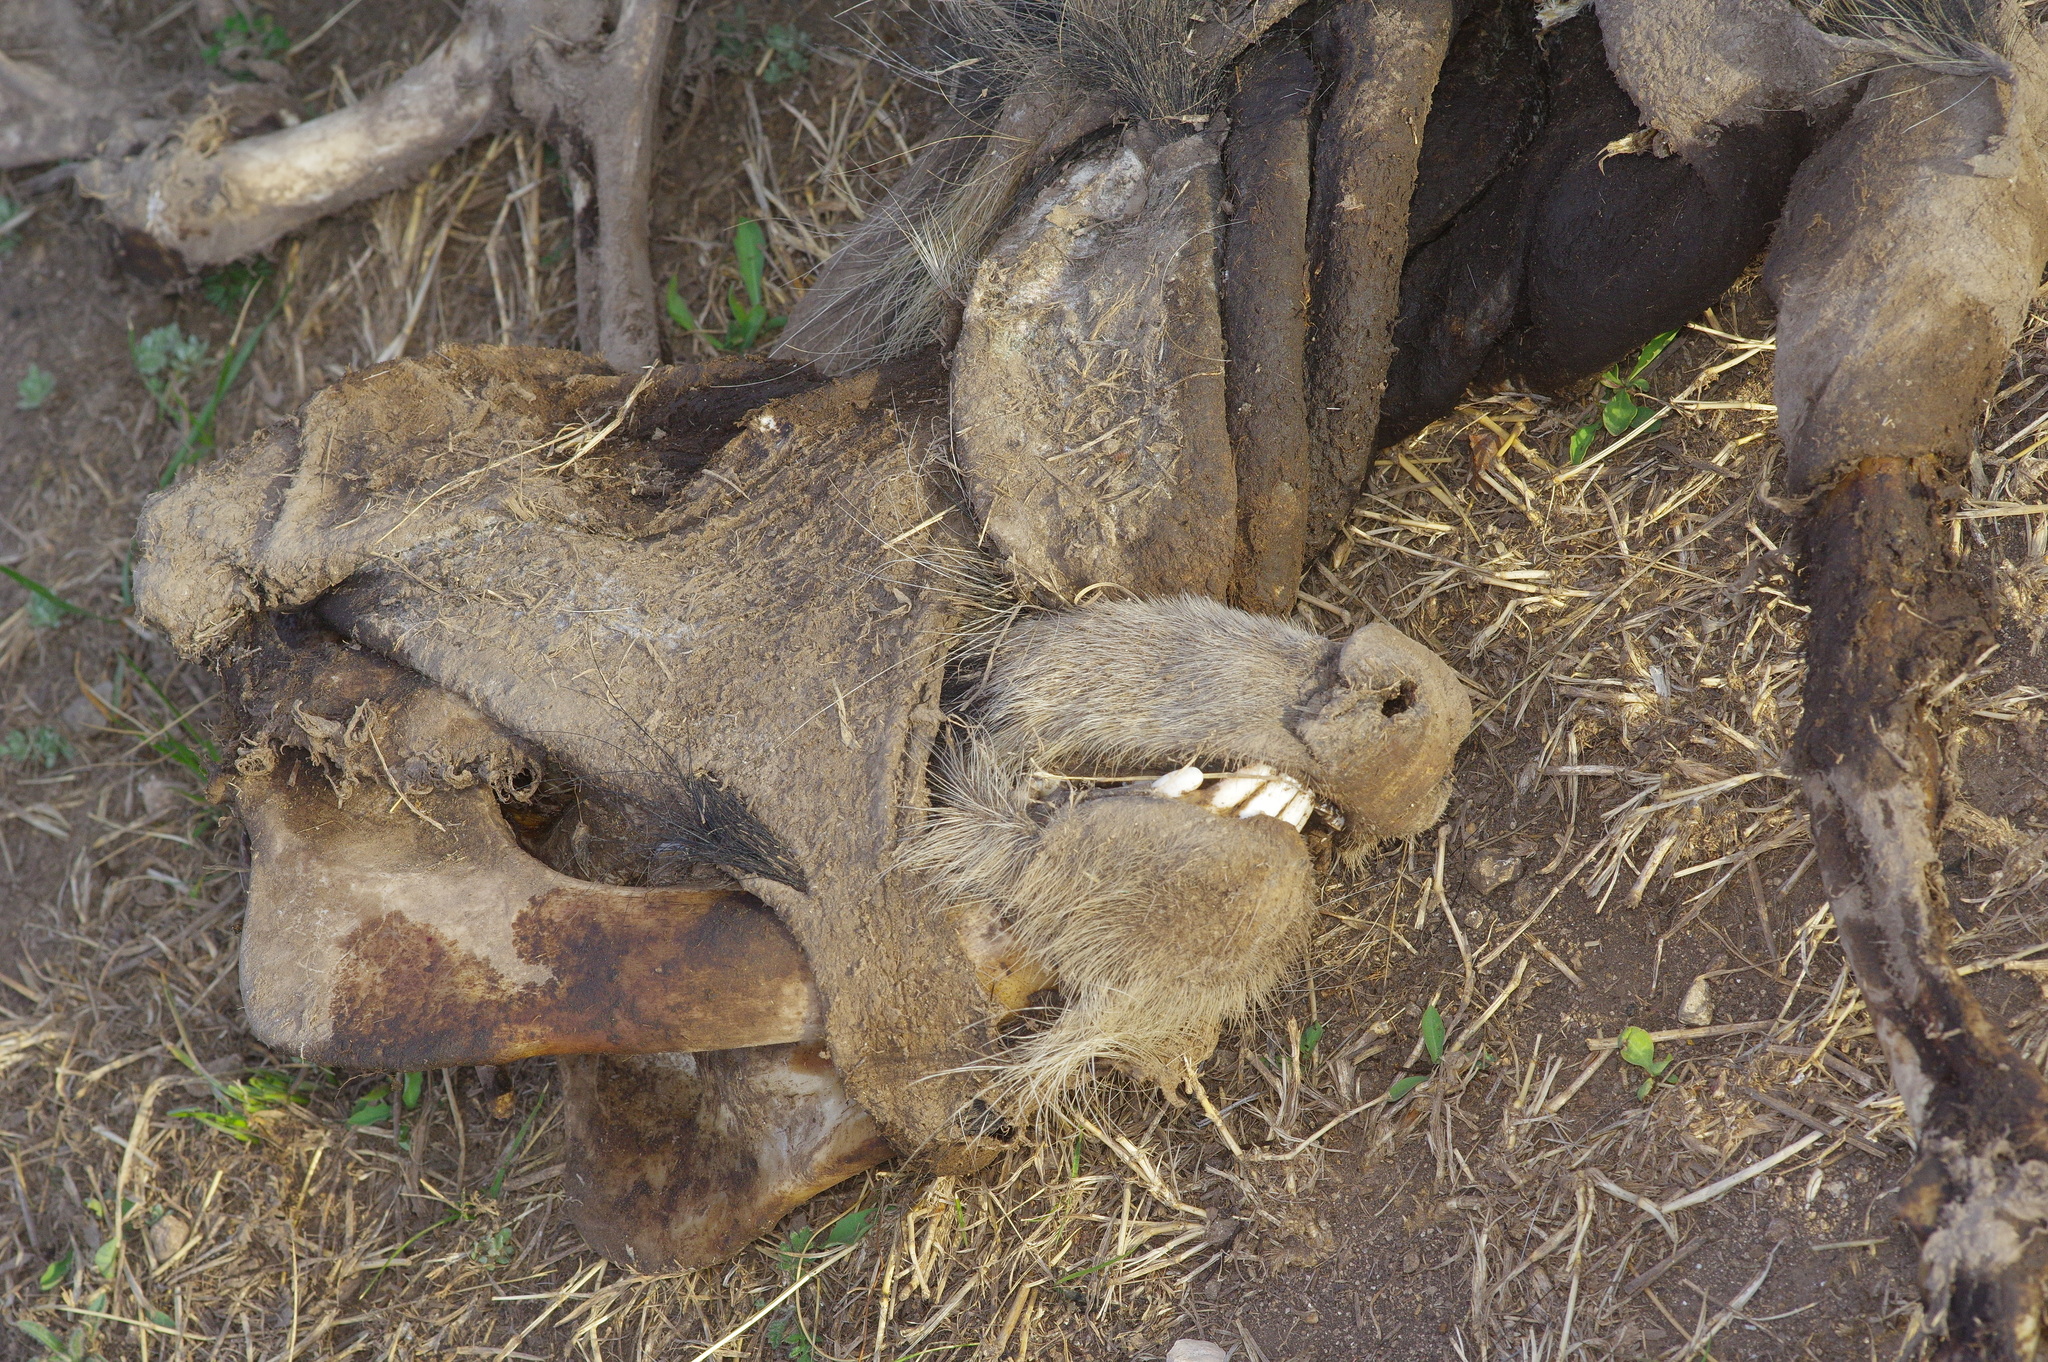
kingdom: Animalia
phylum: Chordata
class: Mammalia
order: Artiodactyla
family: Suidae
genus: Sus
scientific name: Sus scrofa
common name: Wild boar
